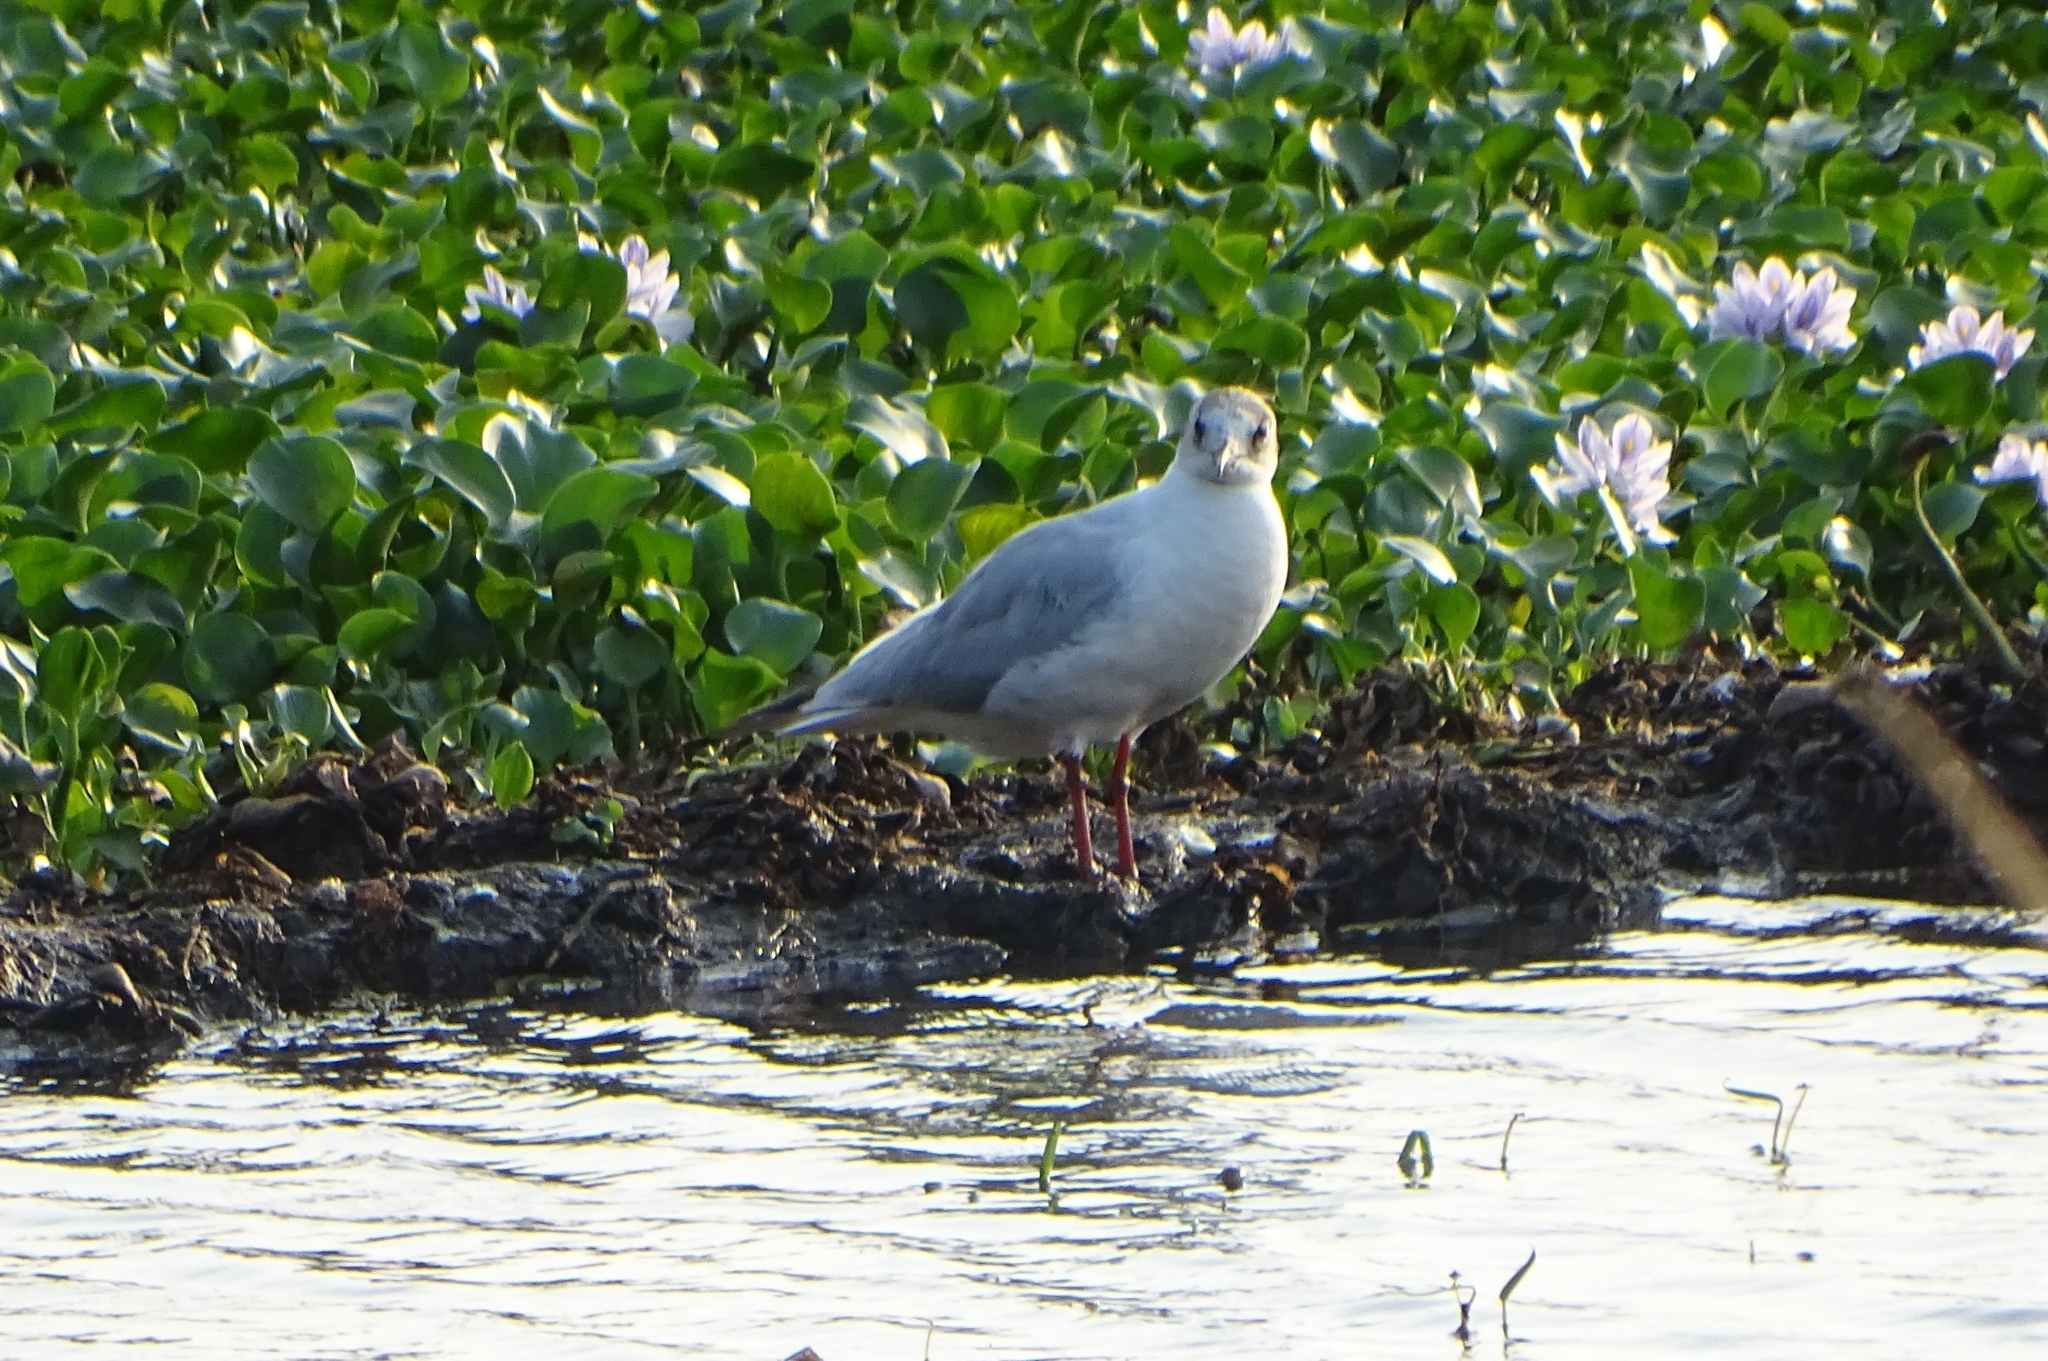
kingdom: Animalia
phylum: Chordata
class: Aves
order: Charadriiformes
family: Laridae
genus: Chroicocephalus
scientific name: Chroicocephalus brunnicephalus
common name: Brown-headed gull
